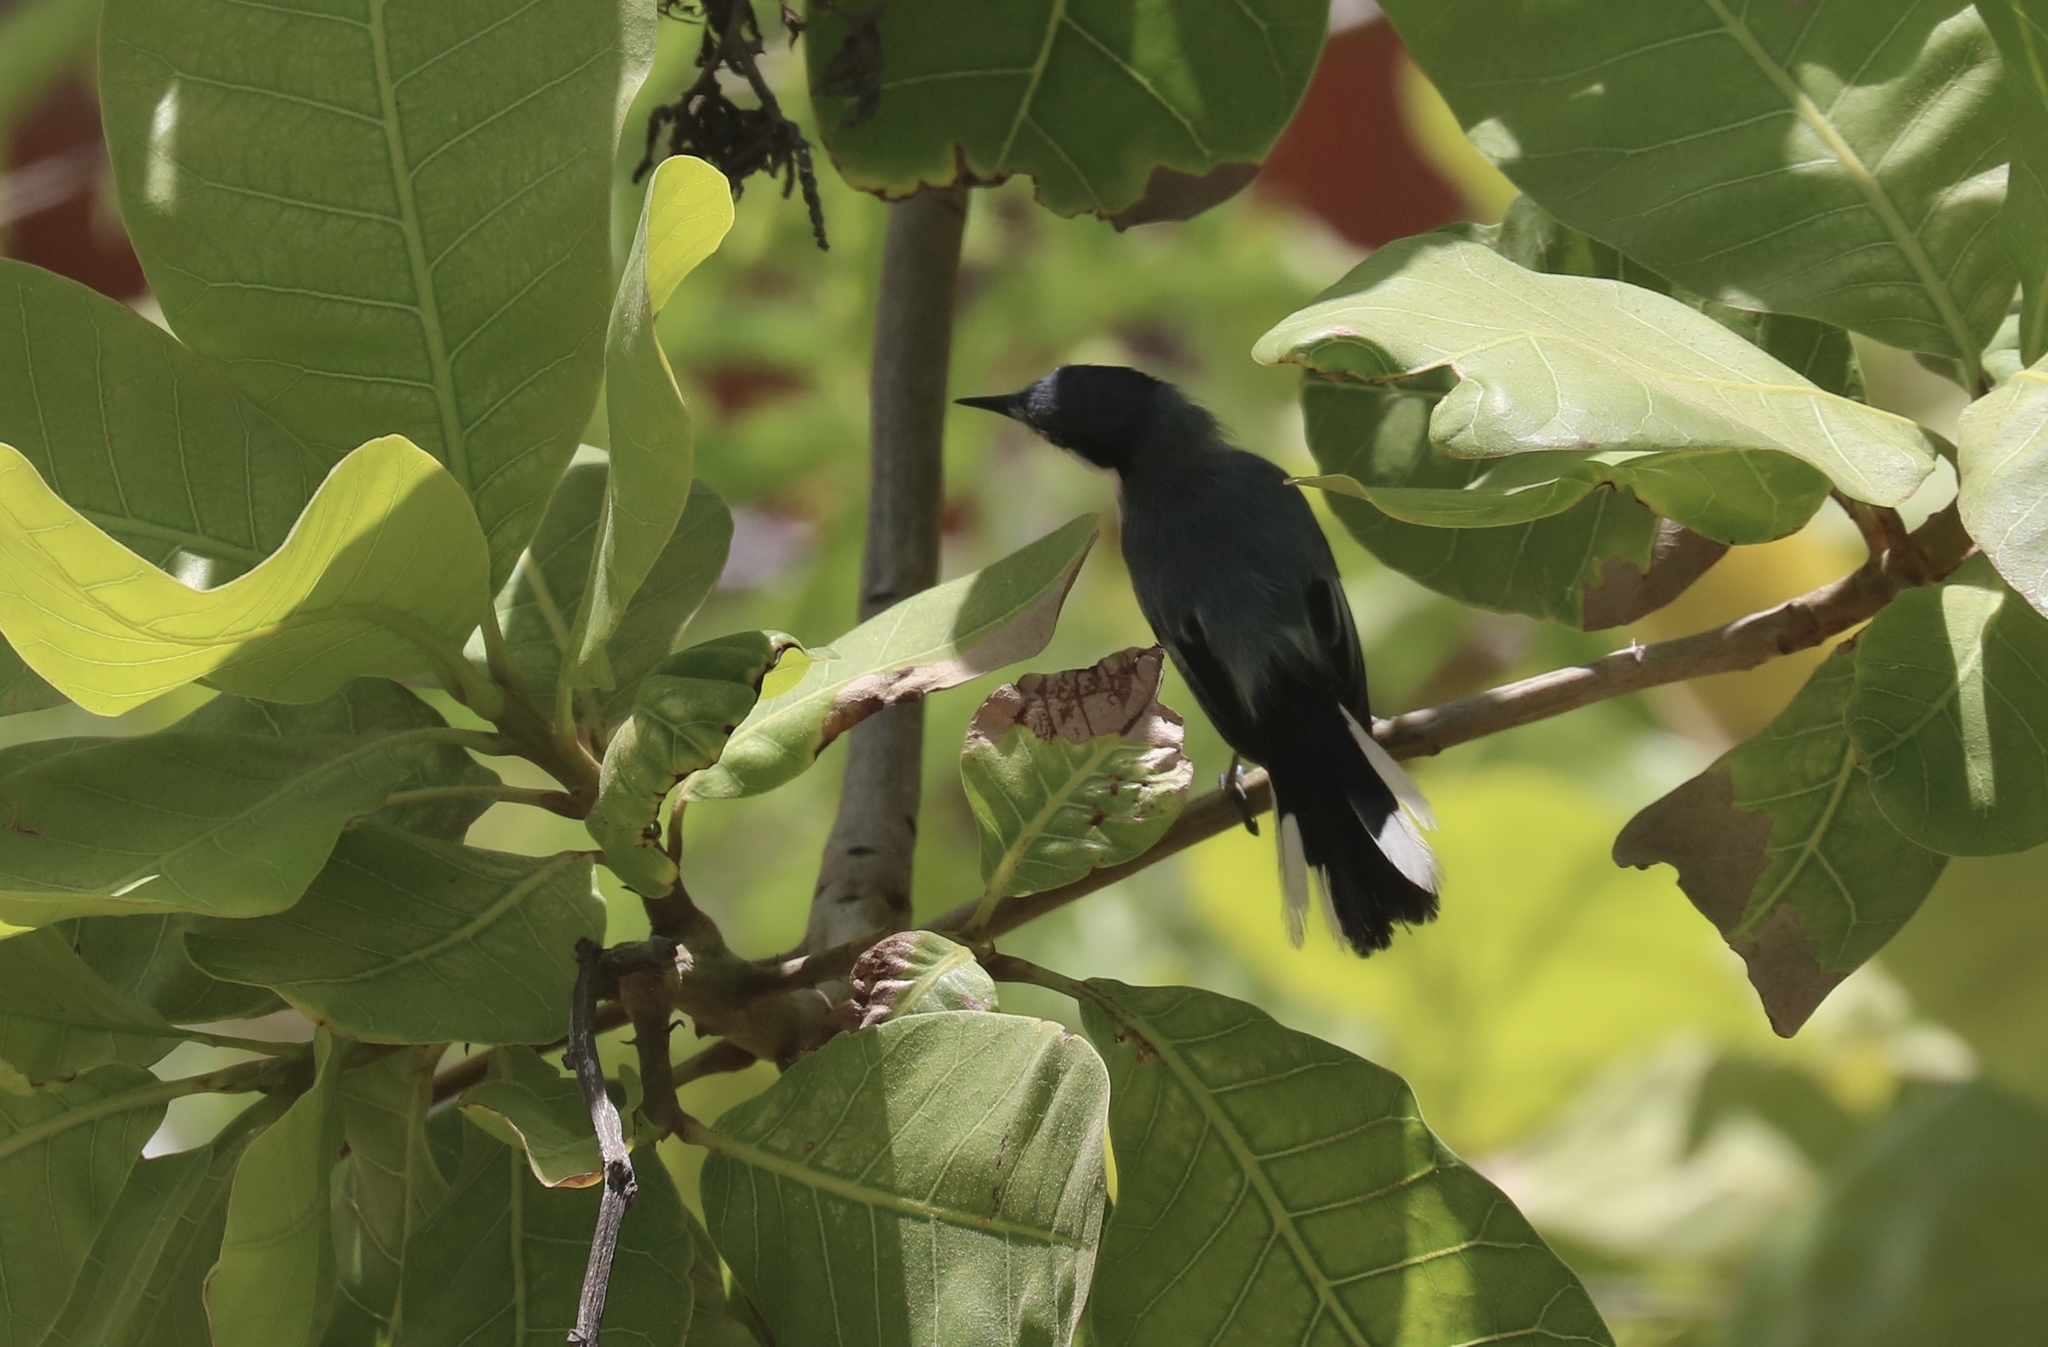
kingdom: Animalia
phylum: Chordata
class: Aves
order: Passeriformes
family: Polioptilidae
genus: Polioptila
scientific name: Polioptila plumbea
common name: Tropical gnatcatcher
